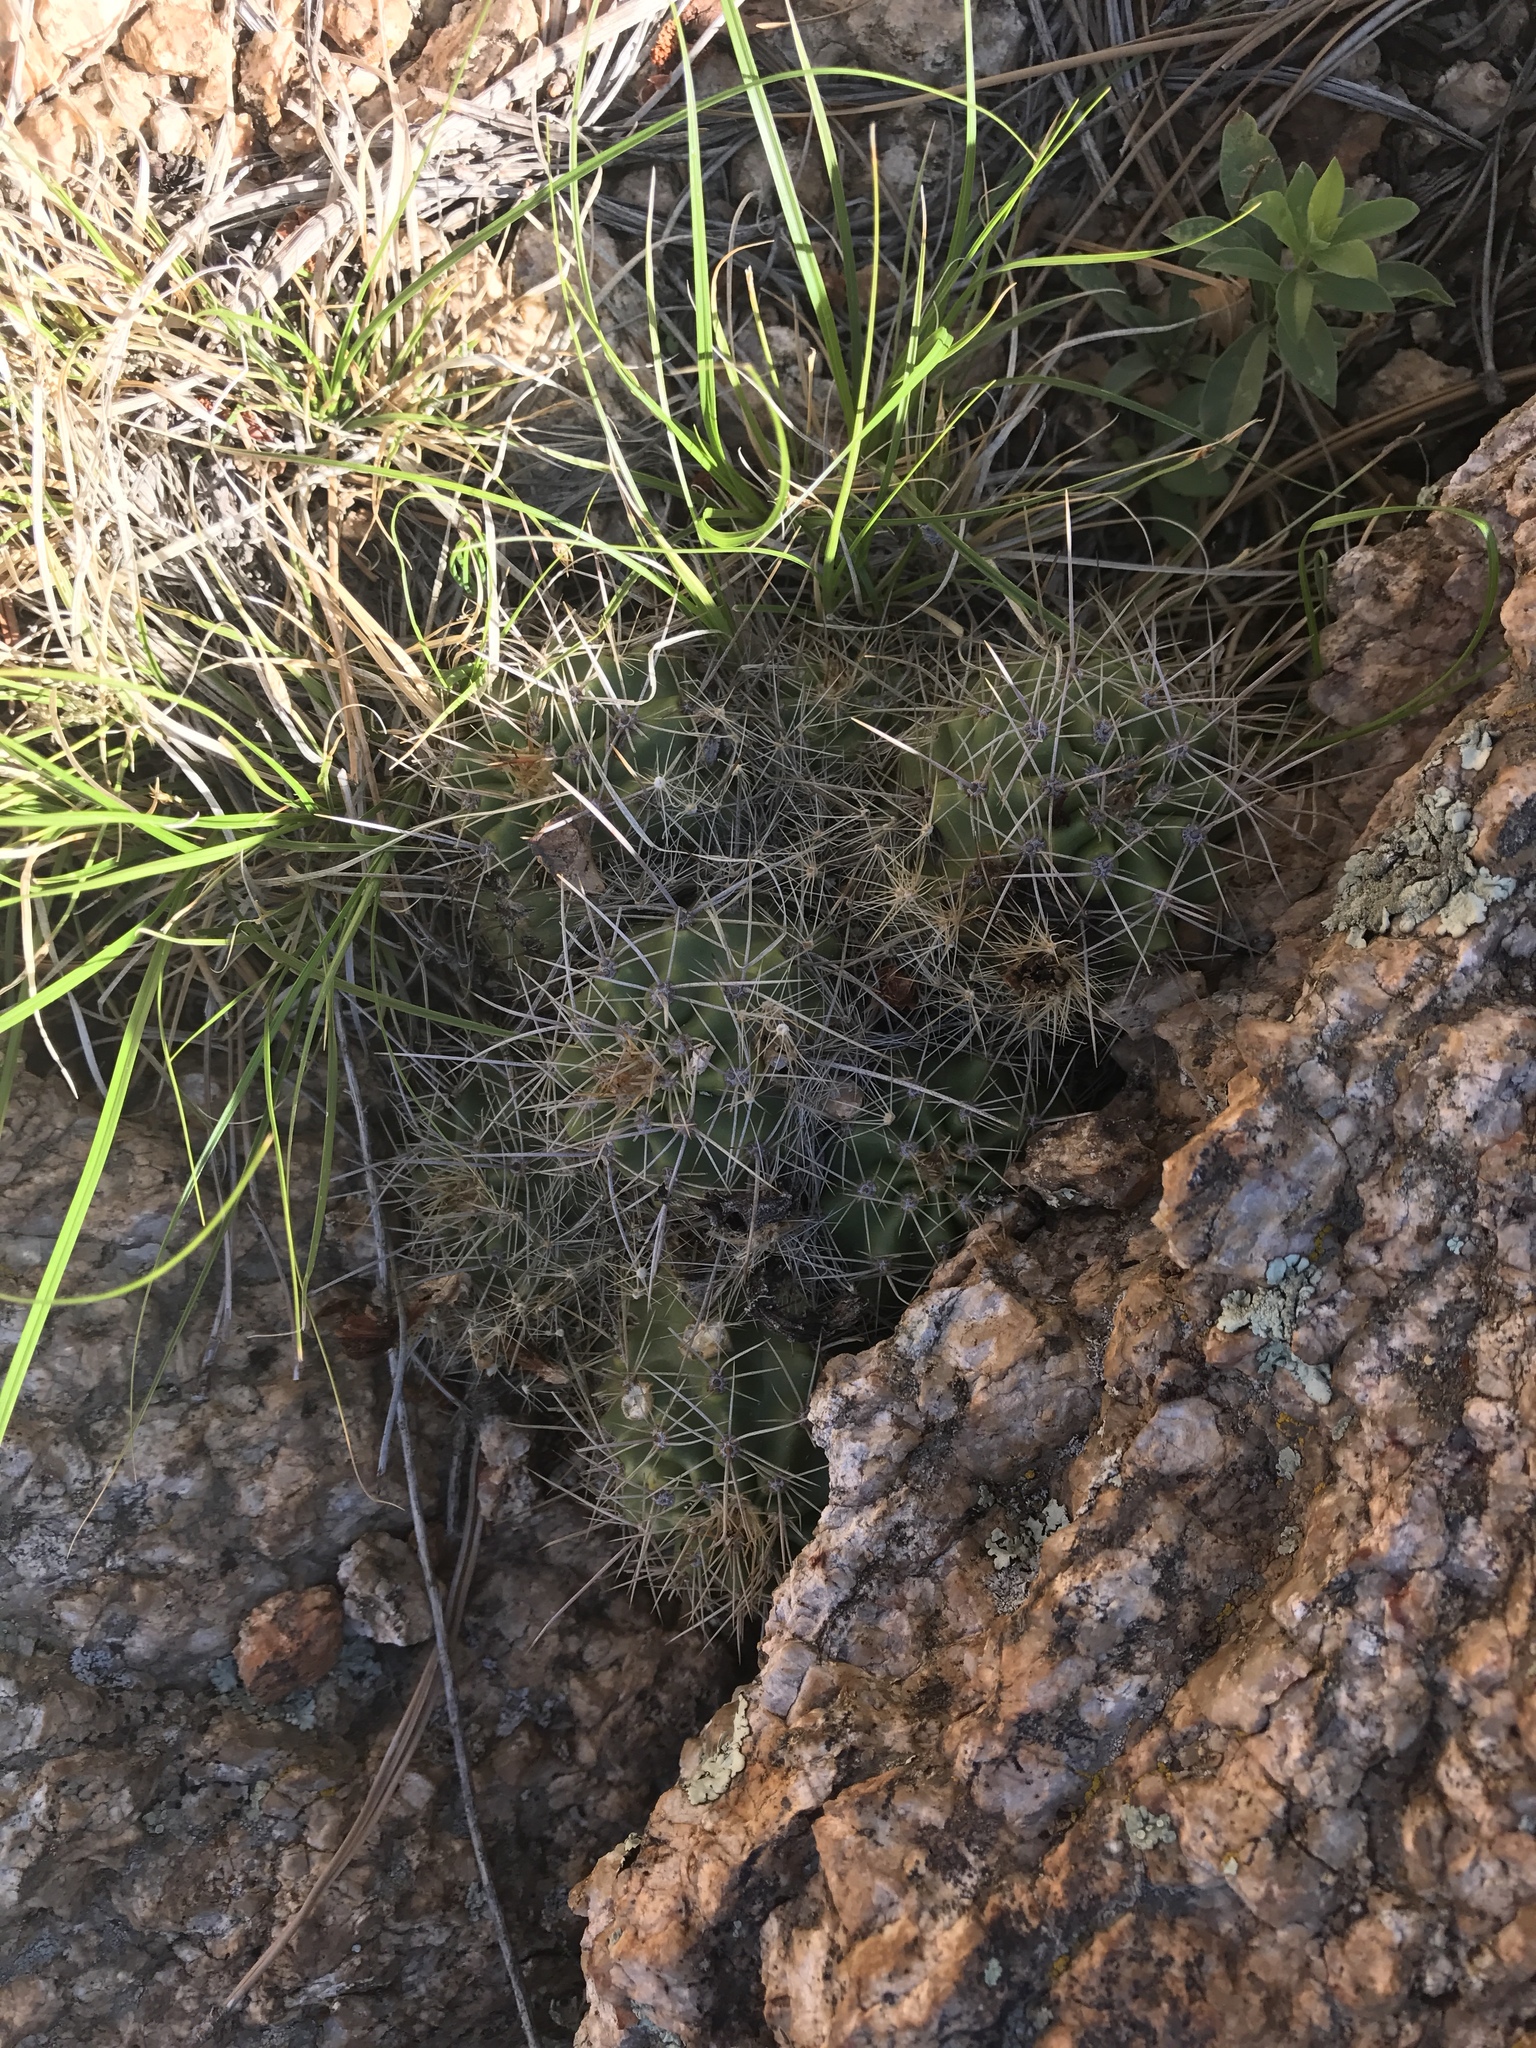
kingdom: Plantae
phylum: Tracheophyta
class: Magnoliopsida
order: Caryophyllales
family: Cactaceae
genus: Echinocereus
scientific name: Echinocereus bakeri
